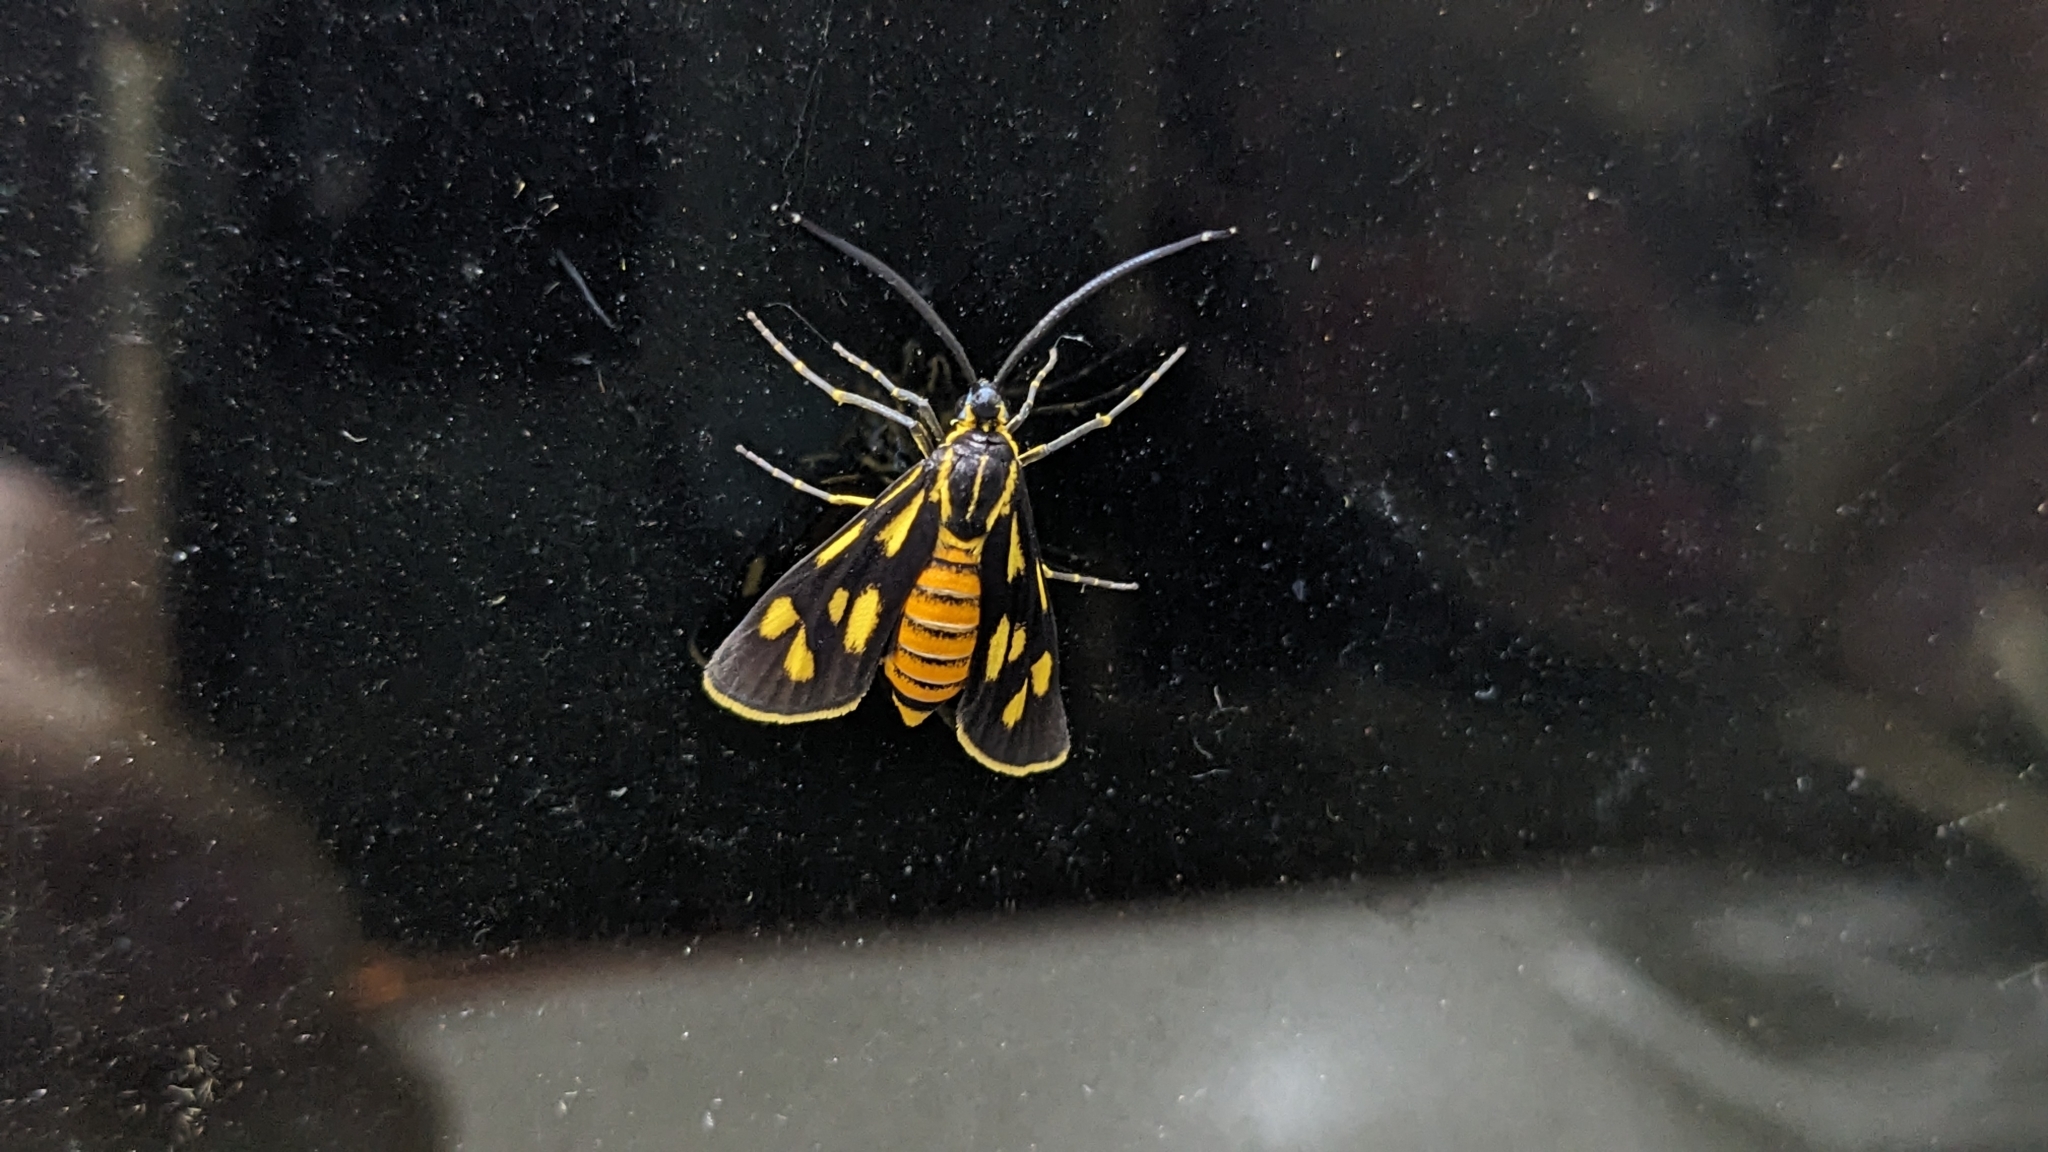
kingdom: Animalia
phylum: Arthropoda
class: Insecta
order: Lepidoptera
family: Zygaenidae
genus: Artona
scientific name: Artona walkeri
